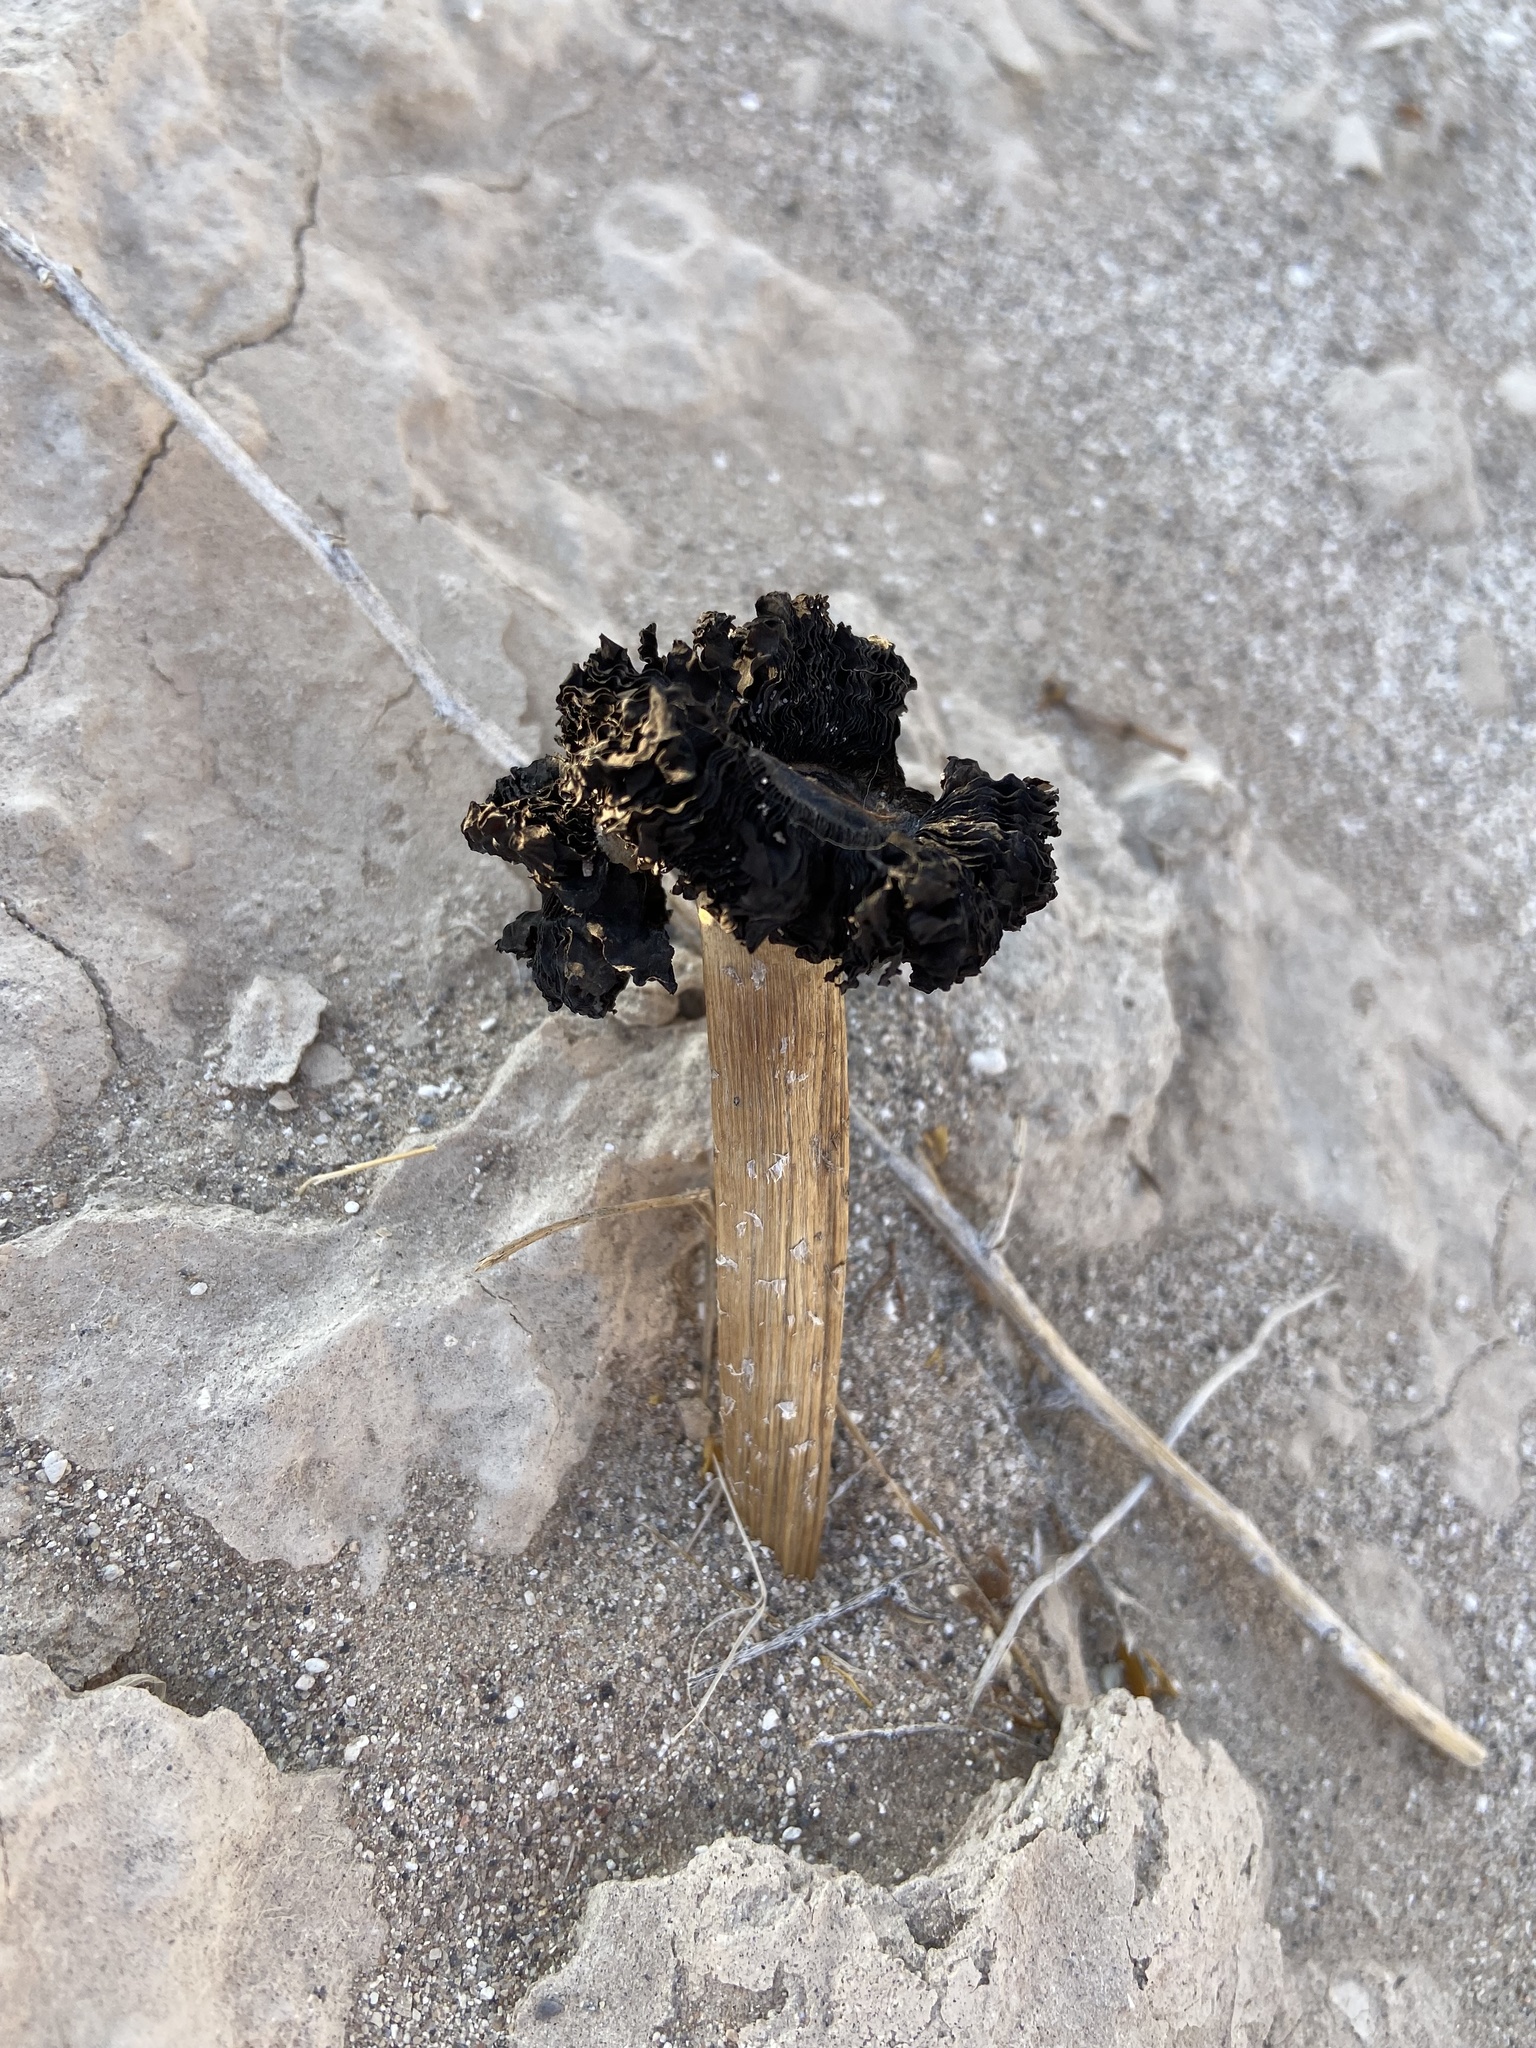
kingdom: Fungi
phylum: Basidiomycota
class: Agaricomycetes
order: Agaricales
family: Agaricaceae
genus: Montagnea
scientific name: Montagnea arenaria
